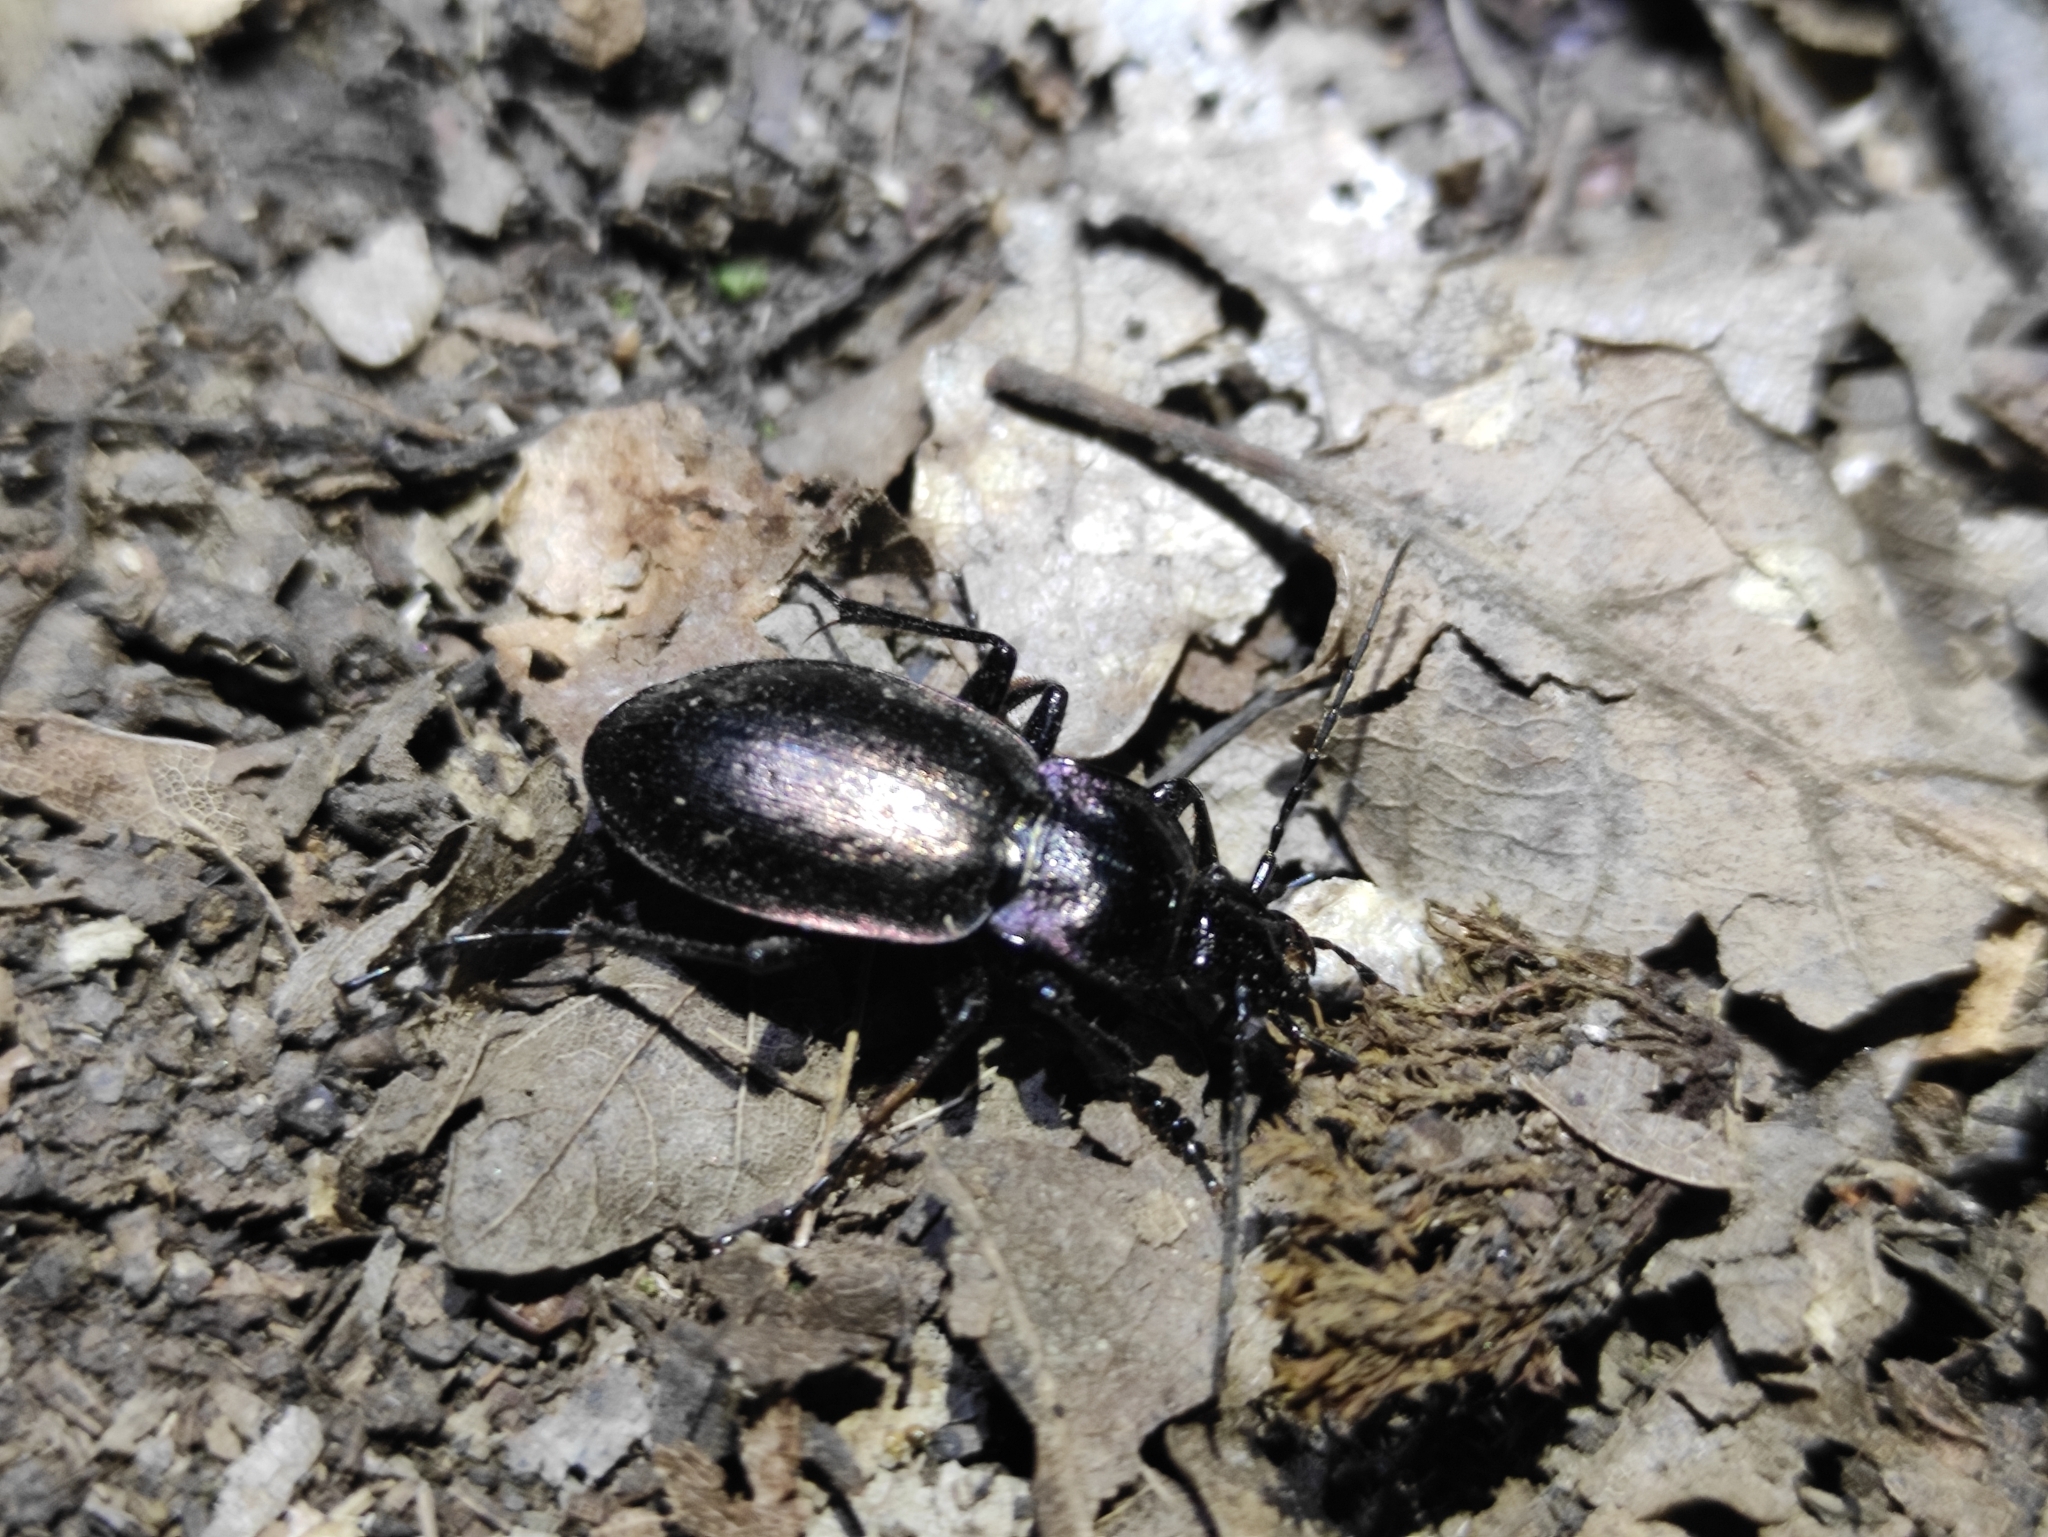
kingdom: Animalia
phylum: Arthropoda
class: Insecta
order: Coleoptera
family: Carabidae
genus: Carabus
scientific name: Carabus nemoralis
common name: European ground beetle
